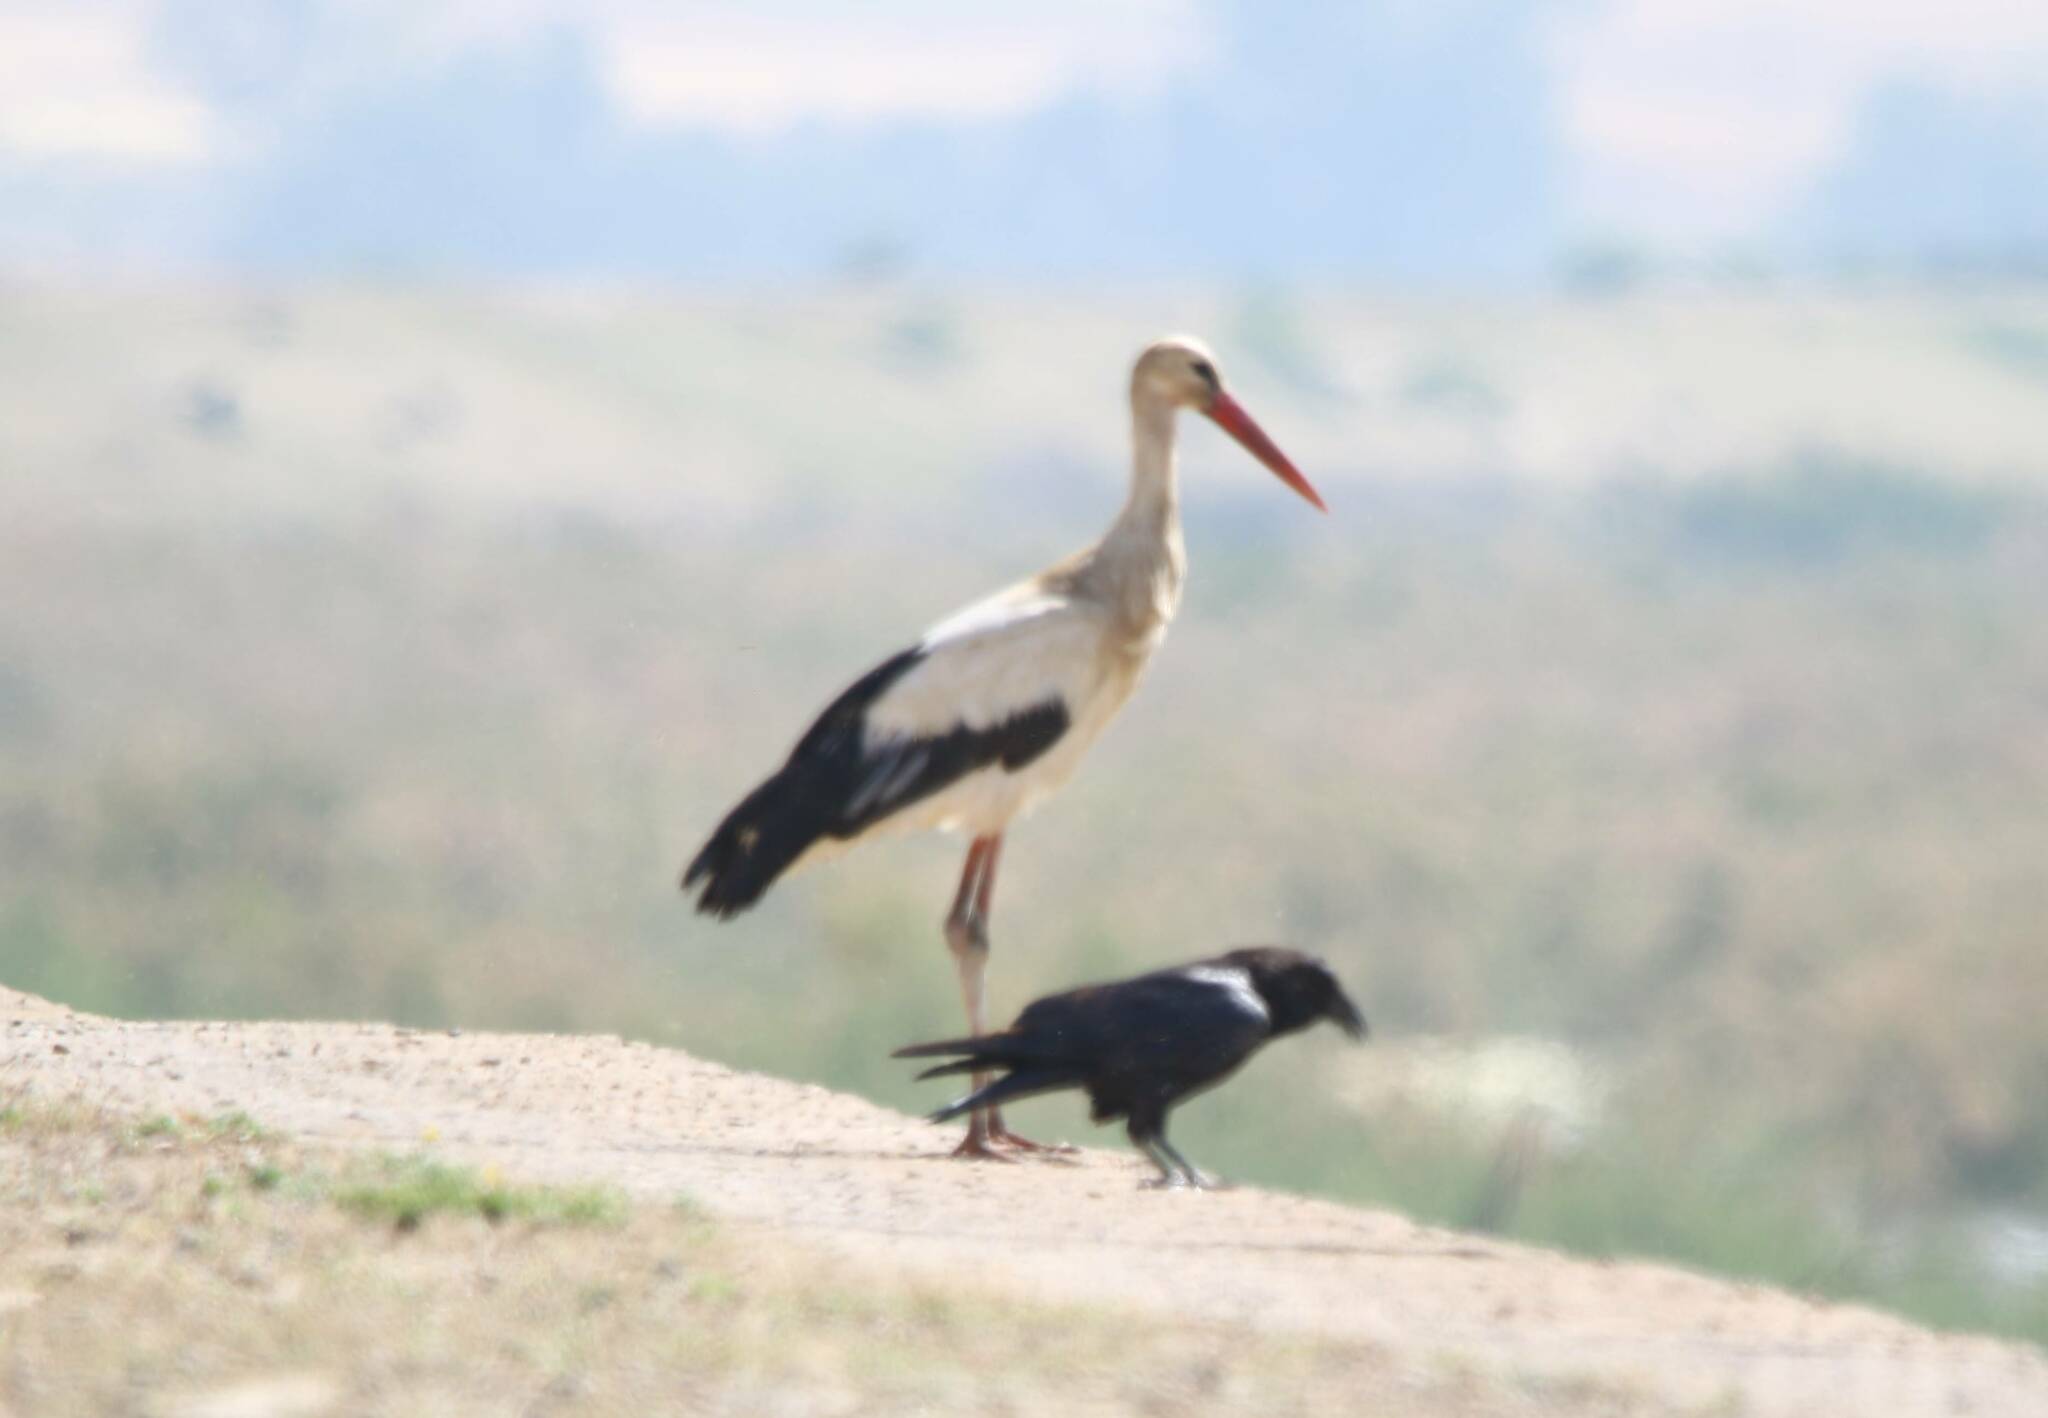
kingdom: Animalia
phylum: Chordata
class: Aves
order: Ciconiiformes
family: Ciconiidae
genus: Ciconia
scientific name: Ciconia ciconia
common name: White stork
